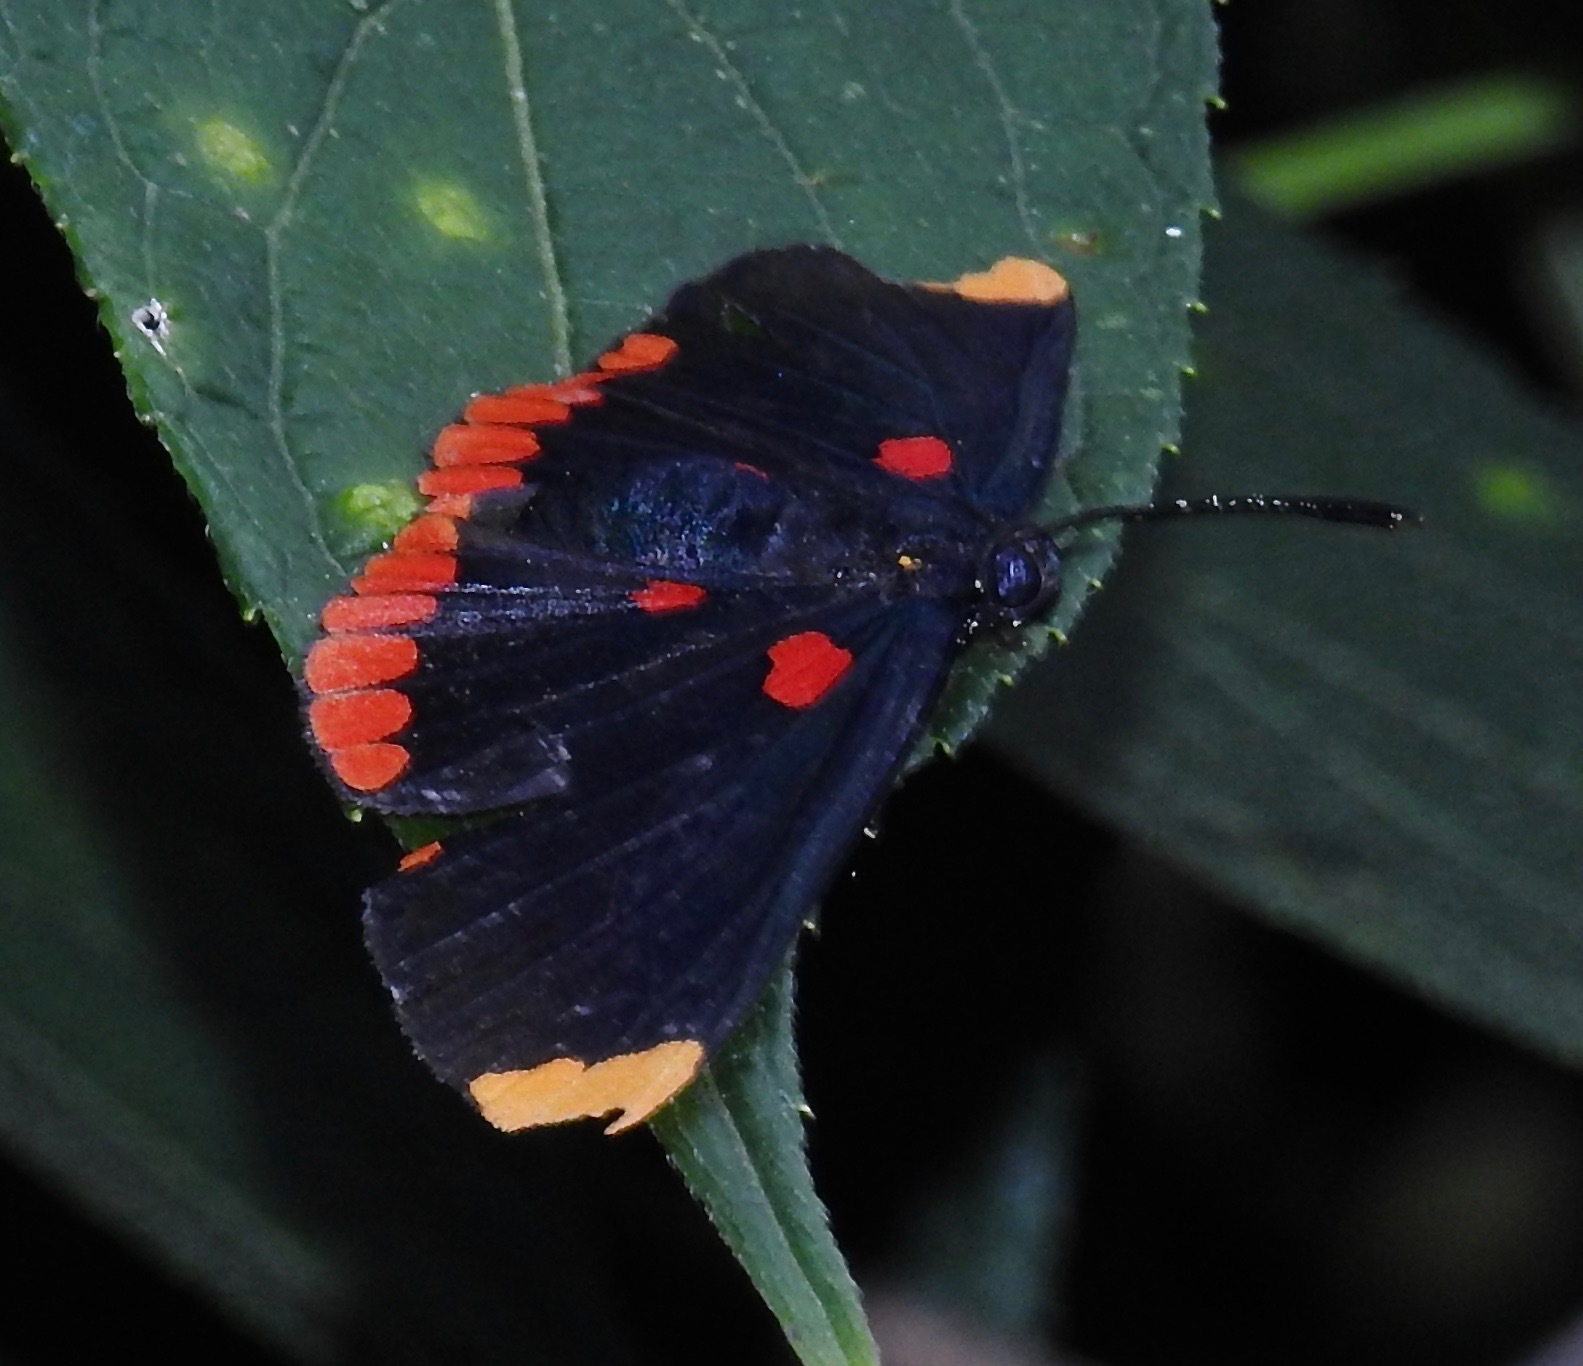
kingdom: Animalia
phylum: Arthropoda
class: Insecta
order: Lepidoptera
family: Lycaenidae
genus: Melanis
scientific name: Melanis pixe
